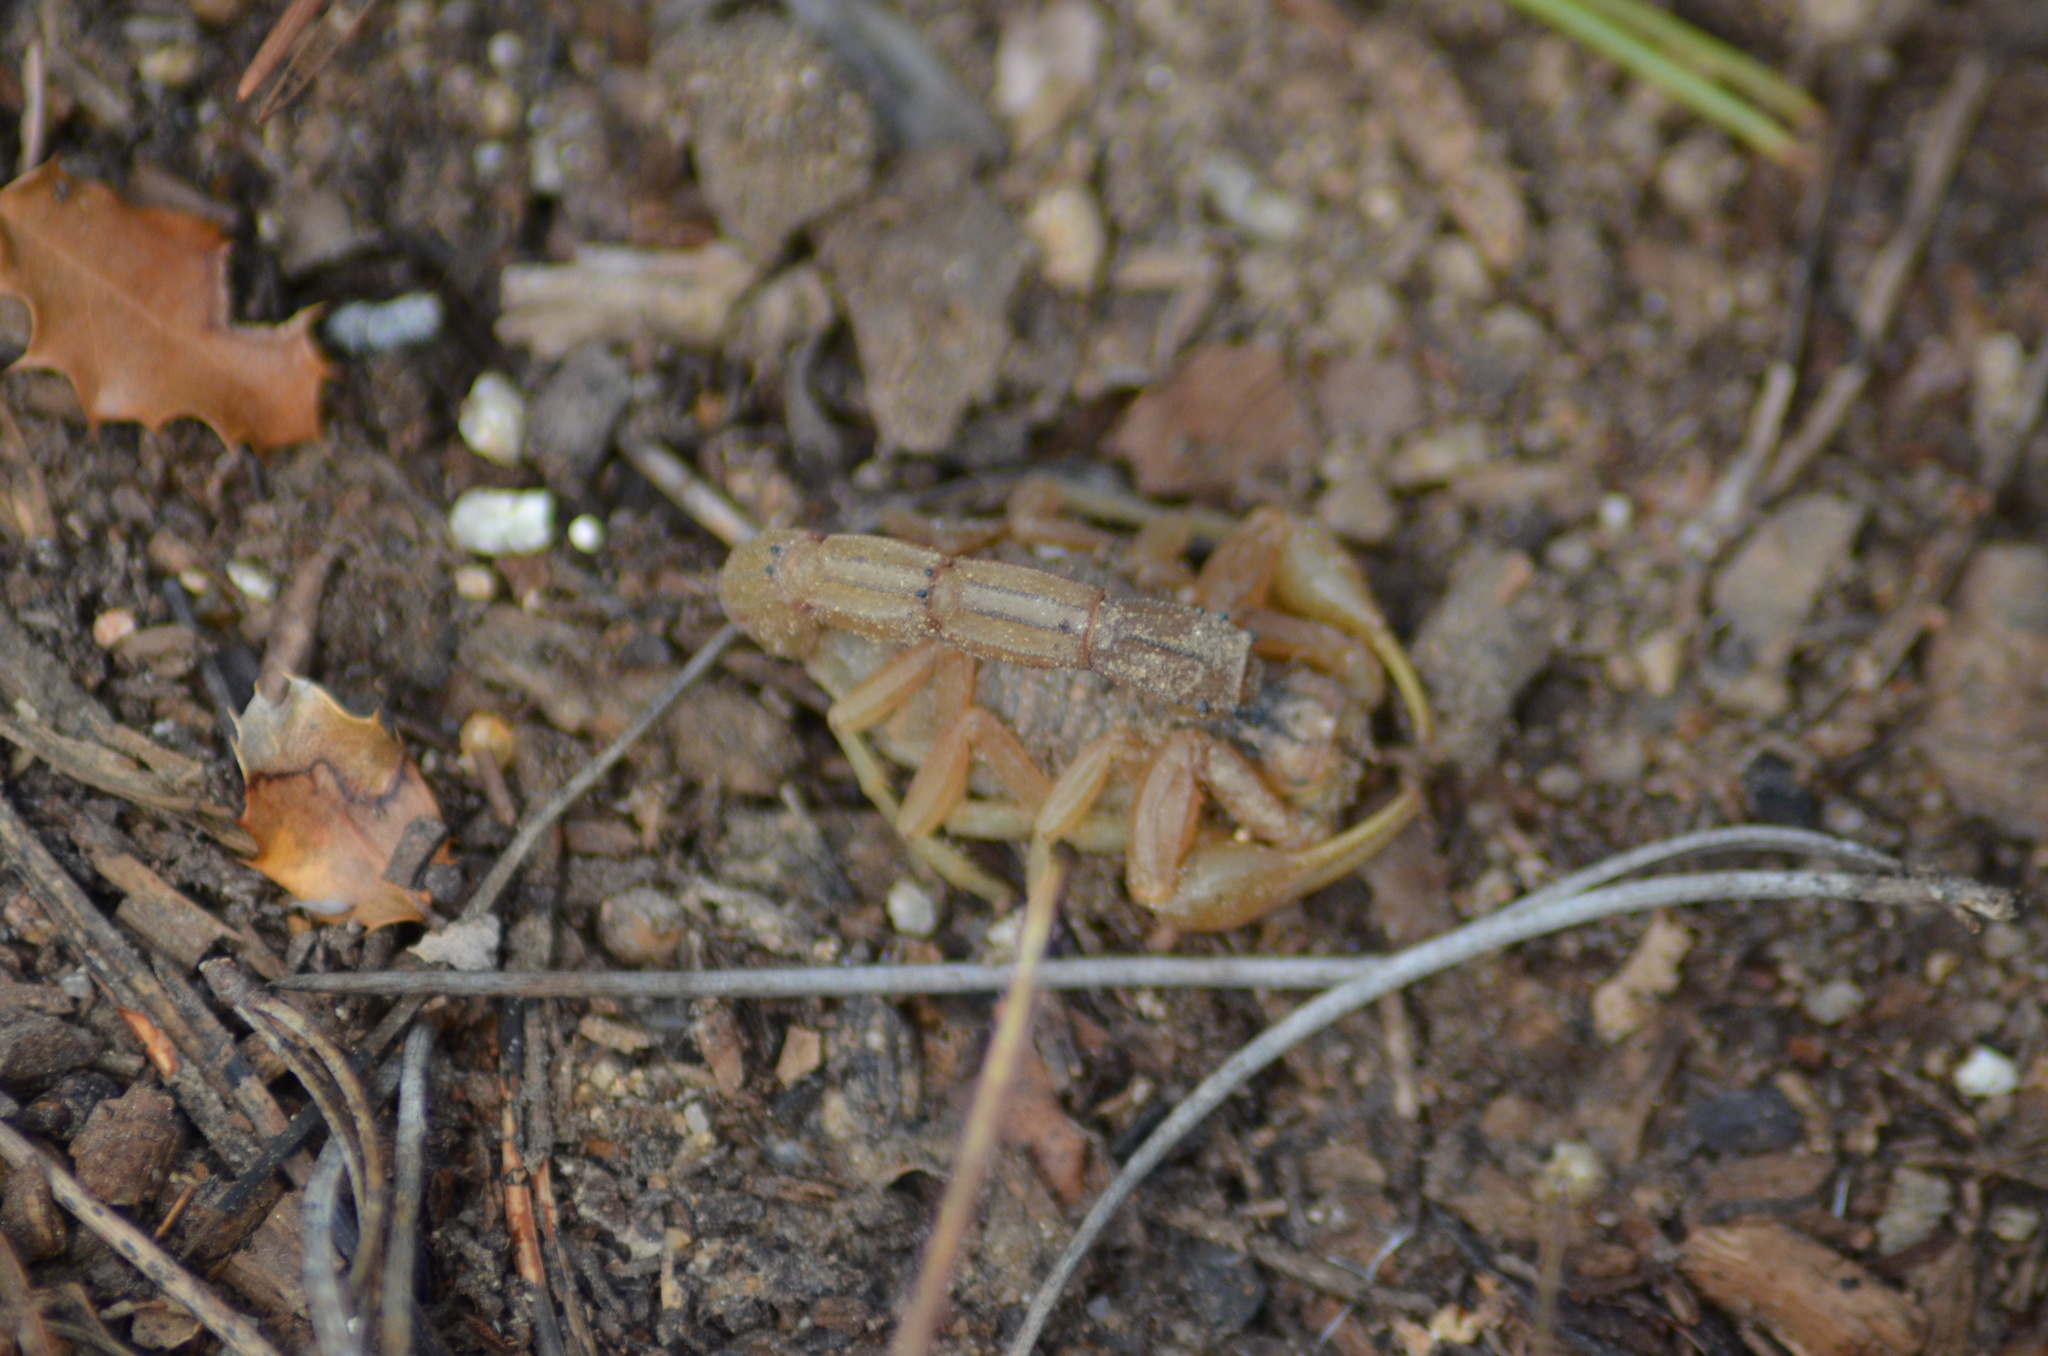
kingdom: Animalia
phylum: Arthropoda
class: Arachnida
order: Scorpiones
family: Buthidae
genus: Buthus
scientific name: Buthus occitanus
